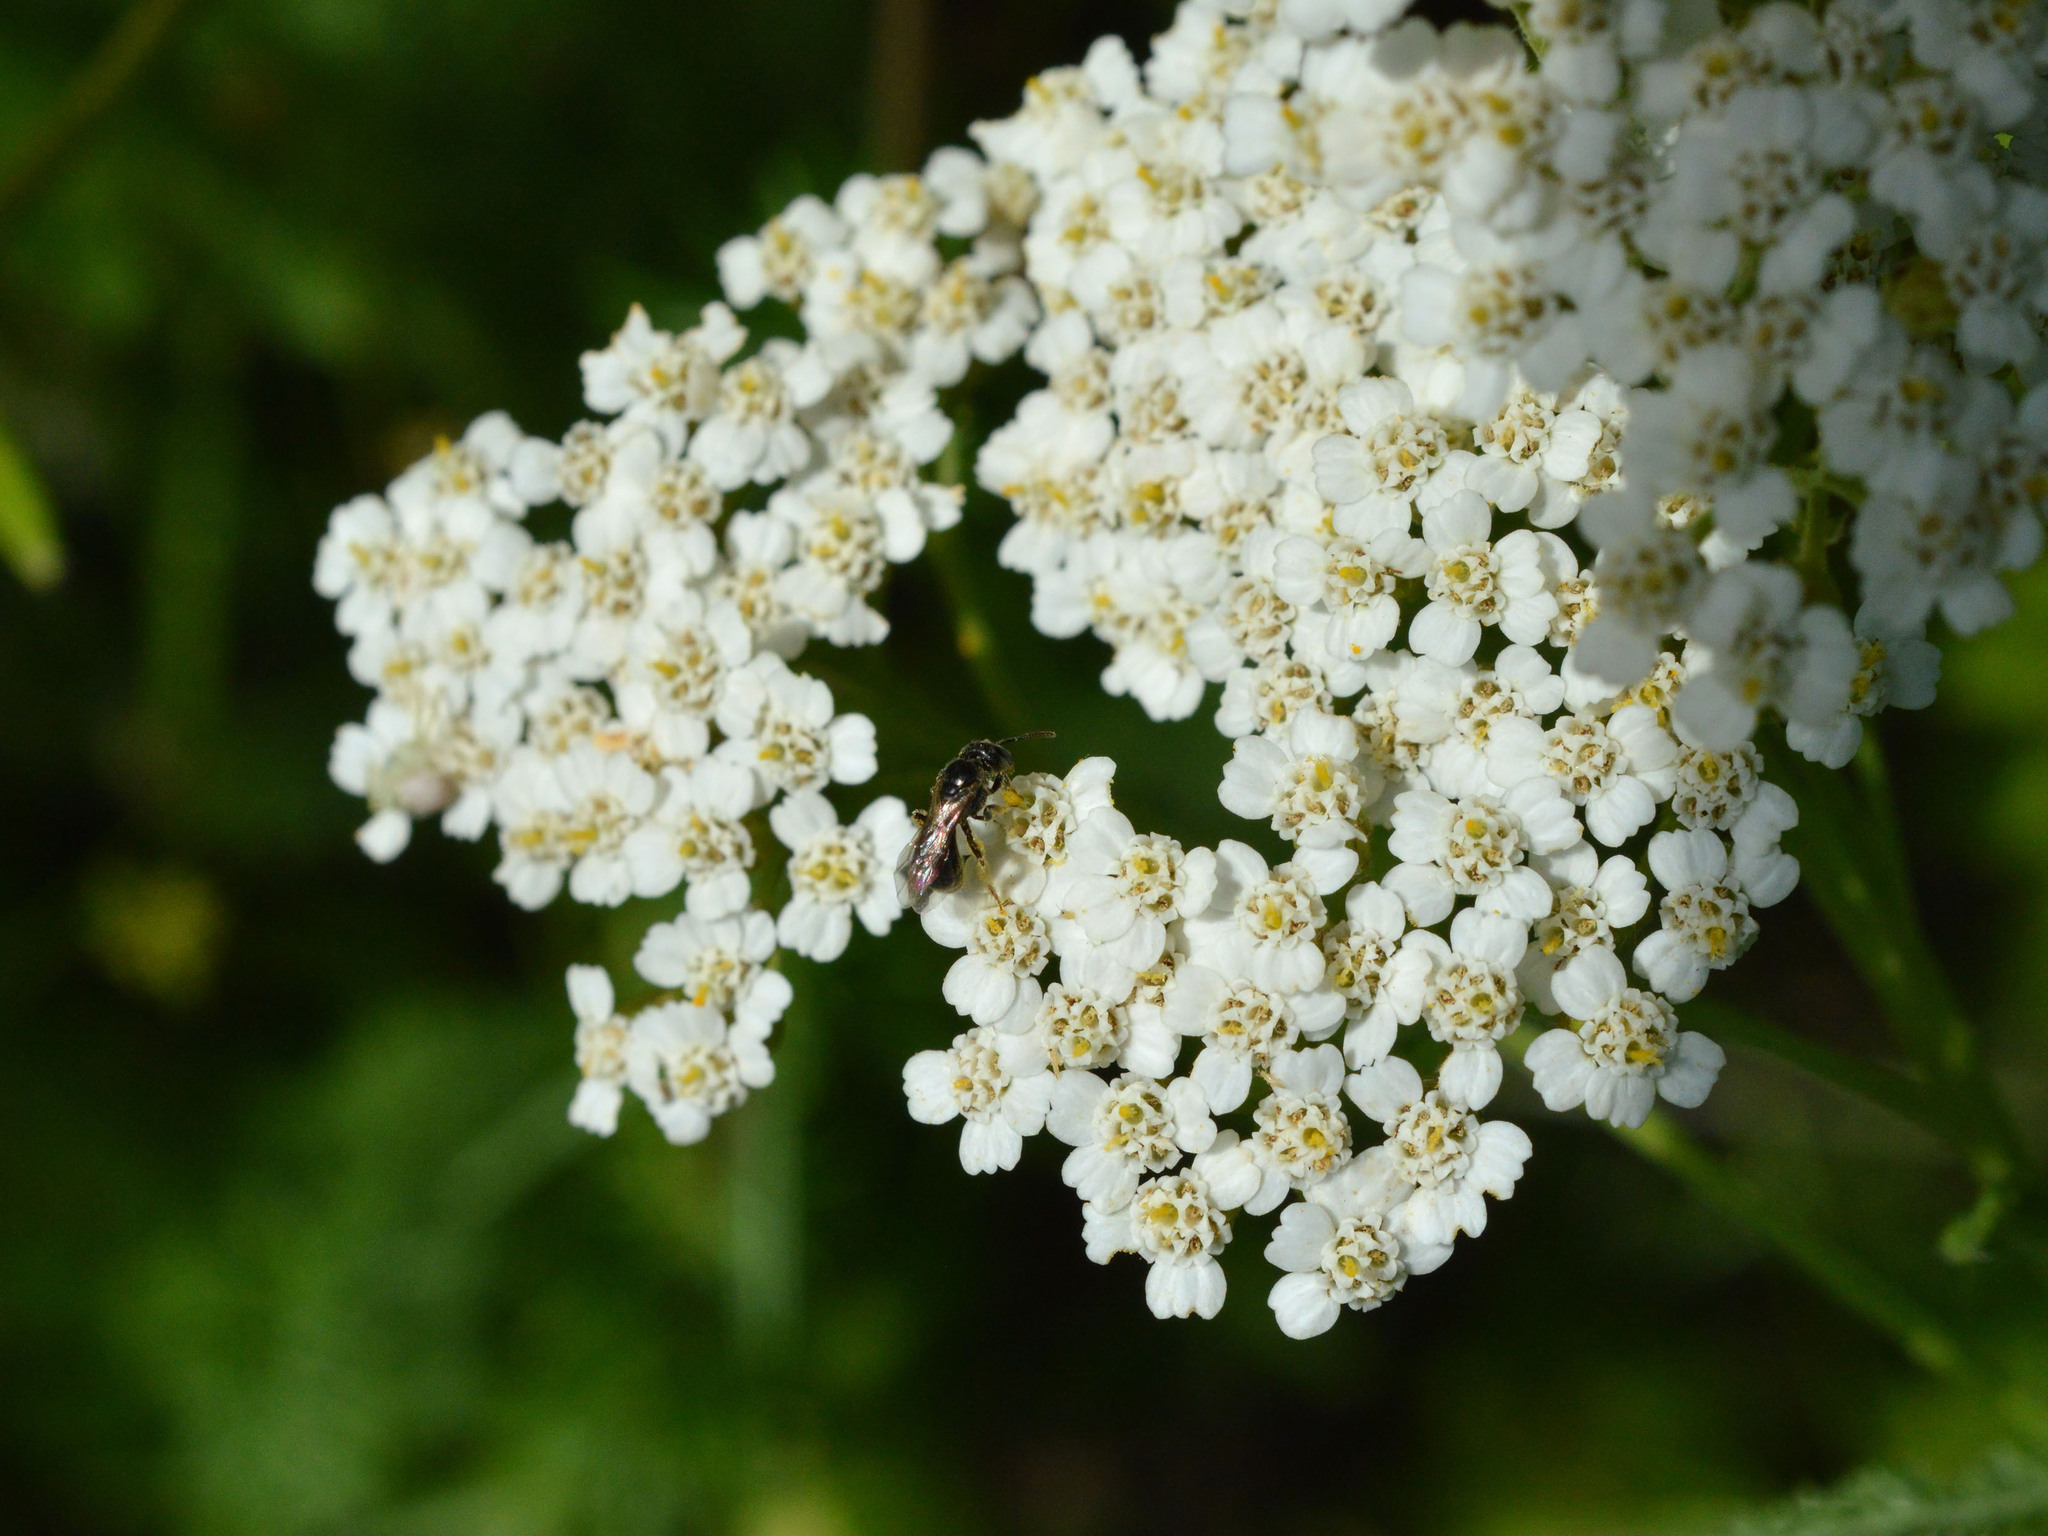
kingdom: Plantae
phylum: Tracheophyta
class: Magnoliopsida
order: Asterales
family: Asteraceae
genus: Achillea
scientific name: Achillea millefolium
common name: Yarrow
